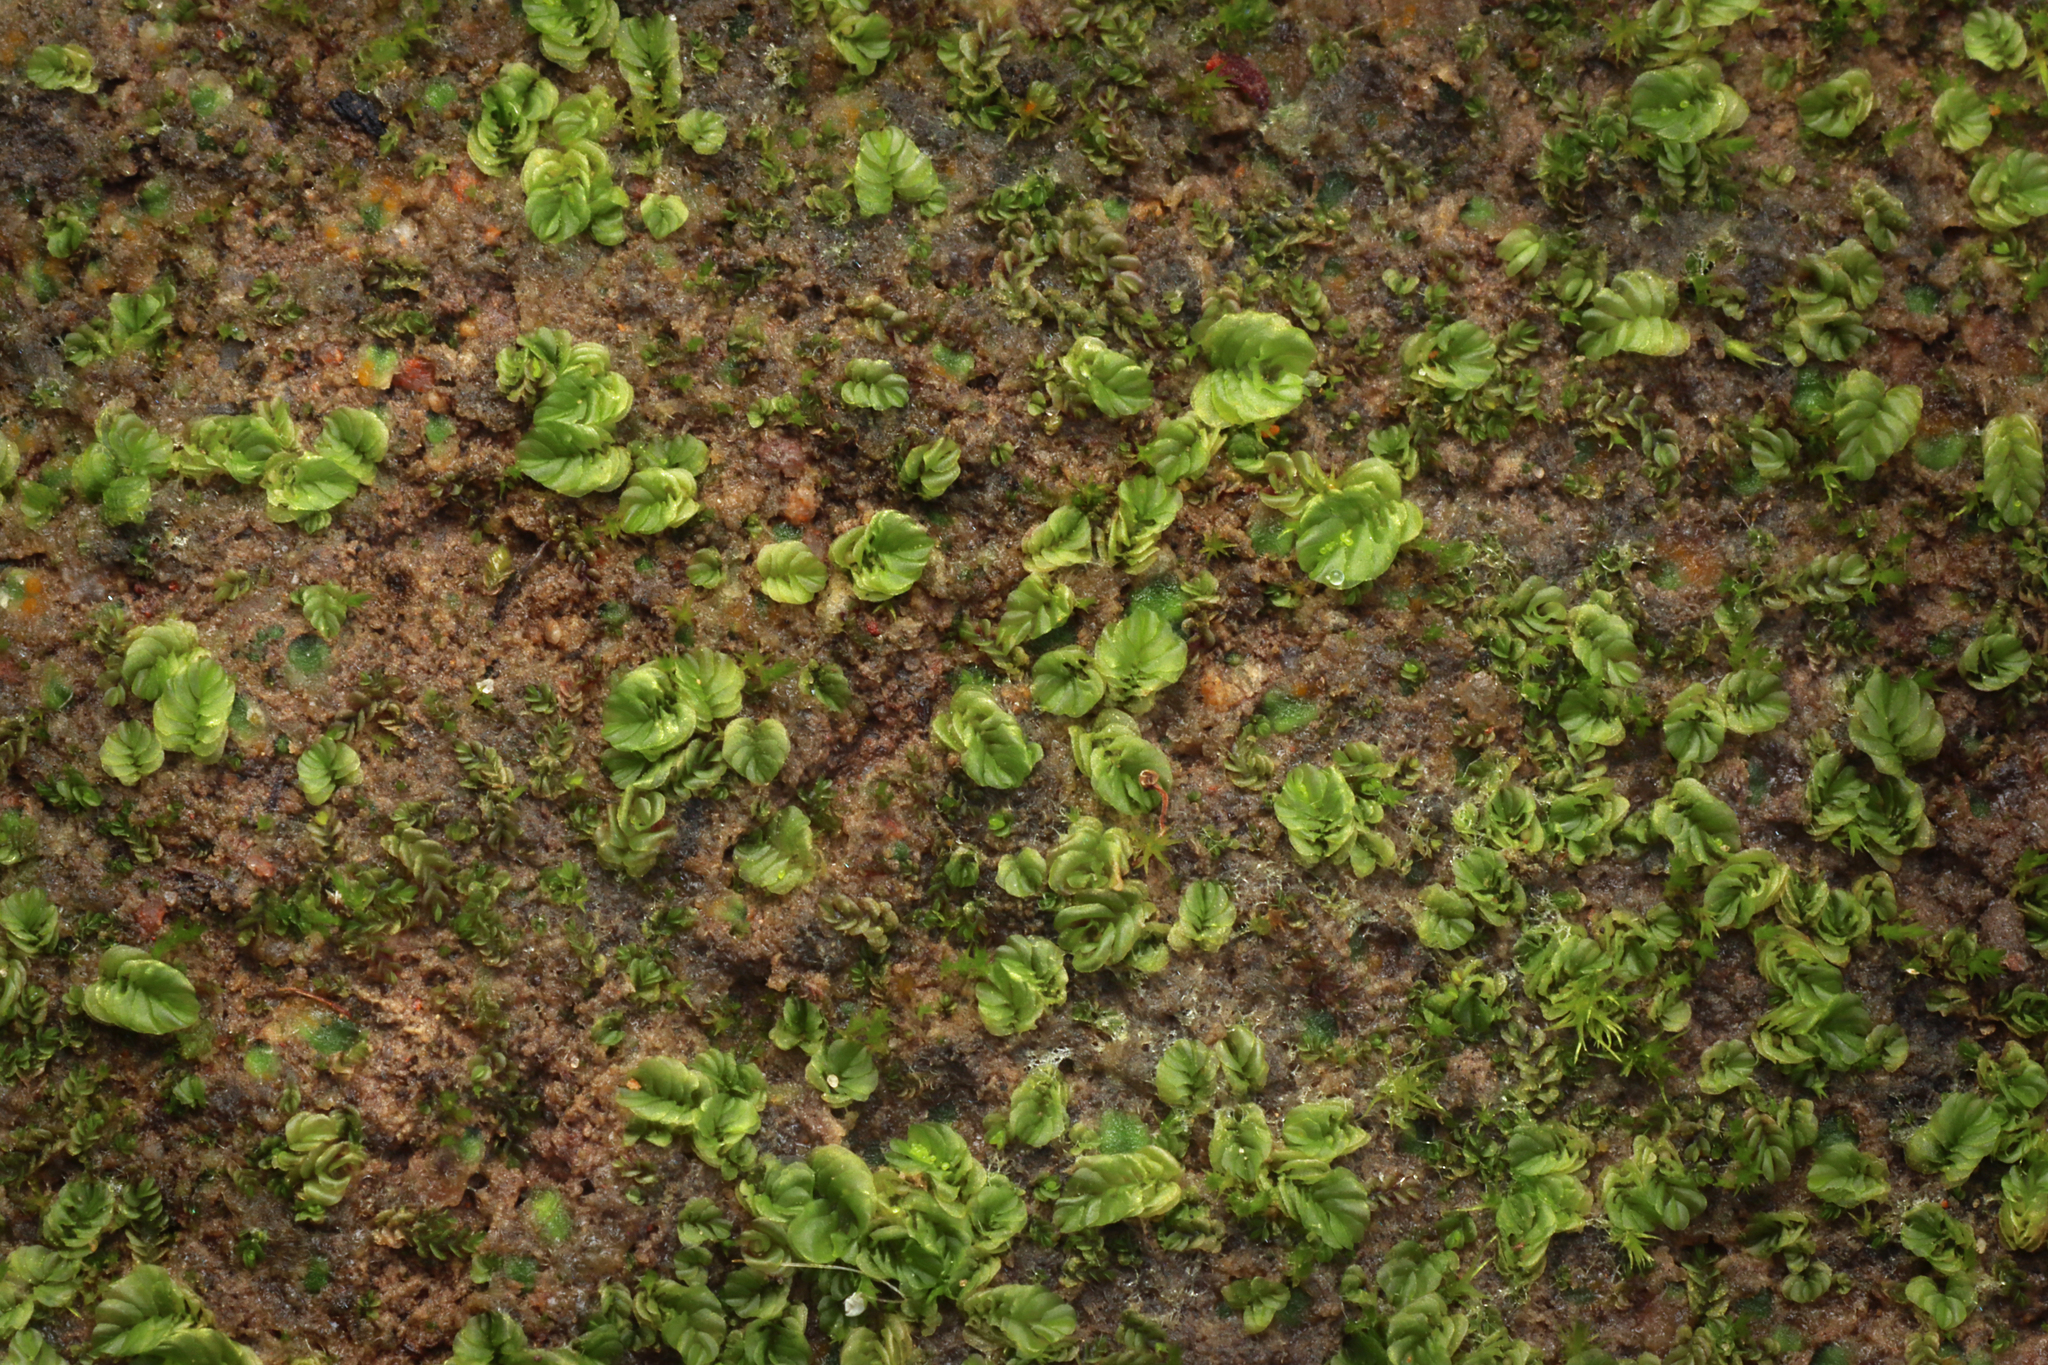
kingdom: Plantae
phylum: Marchantiophyta
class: Jungermanniopsida
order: Jungermanniales
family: Acrobolbaceae
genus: Lethocolea
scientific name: Lethocolea pansa
